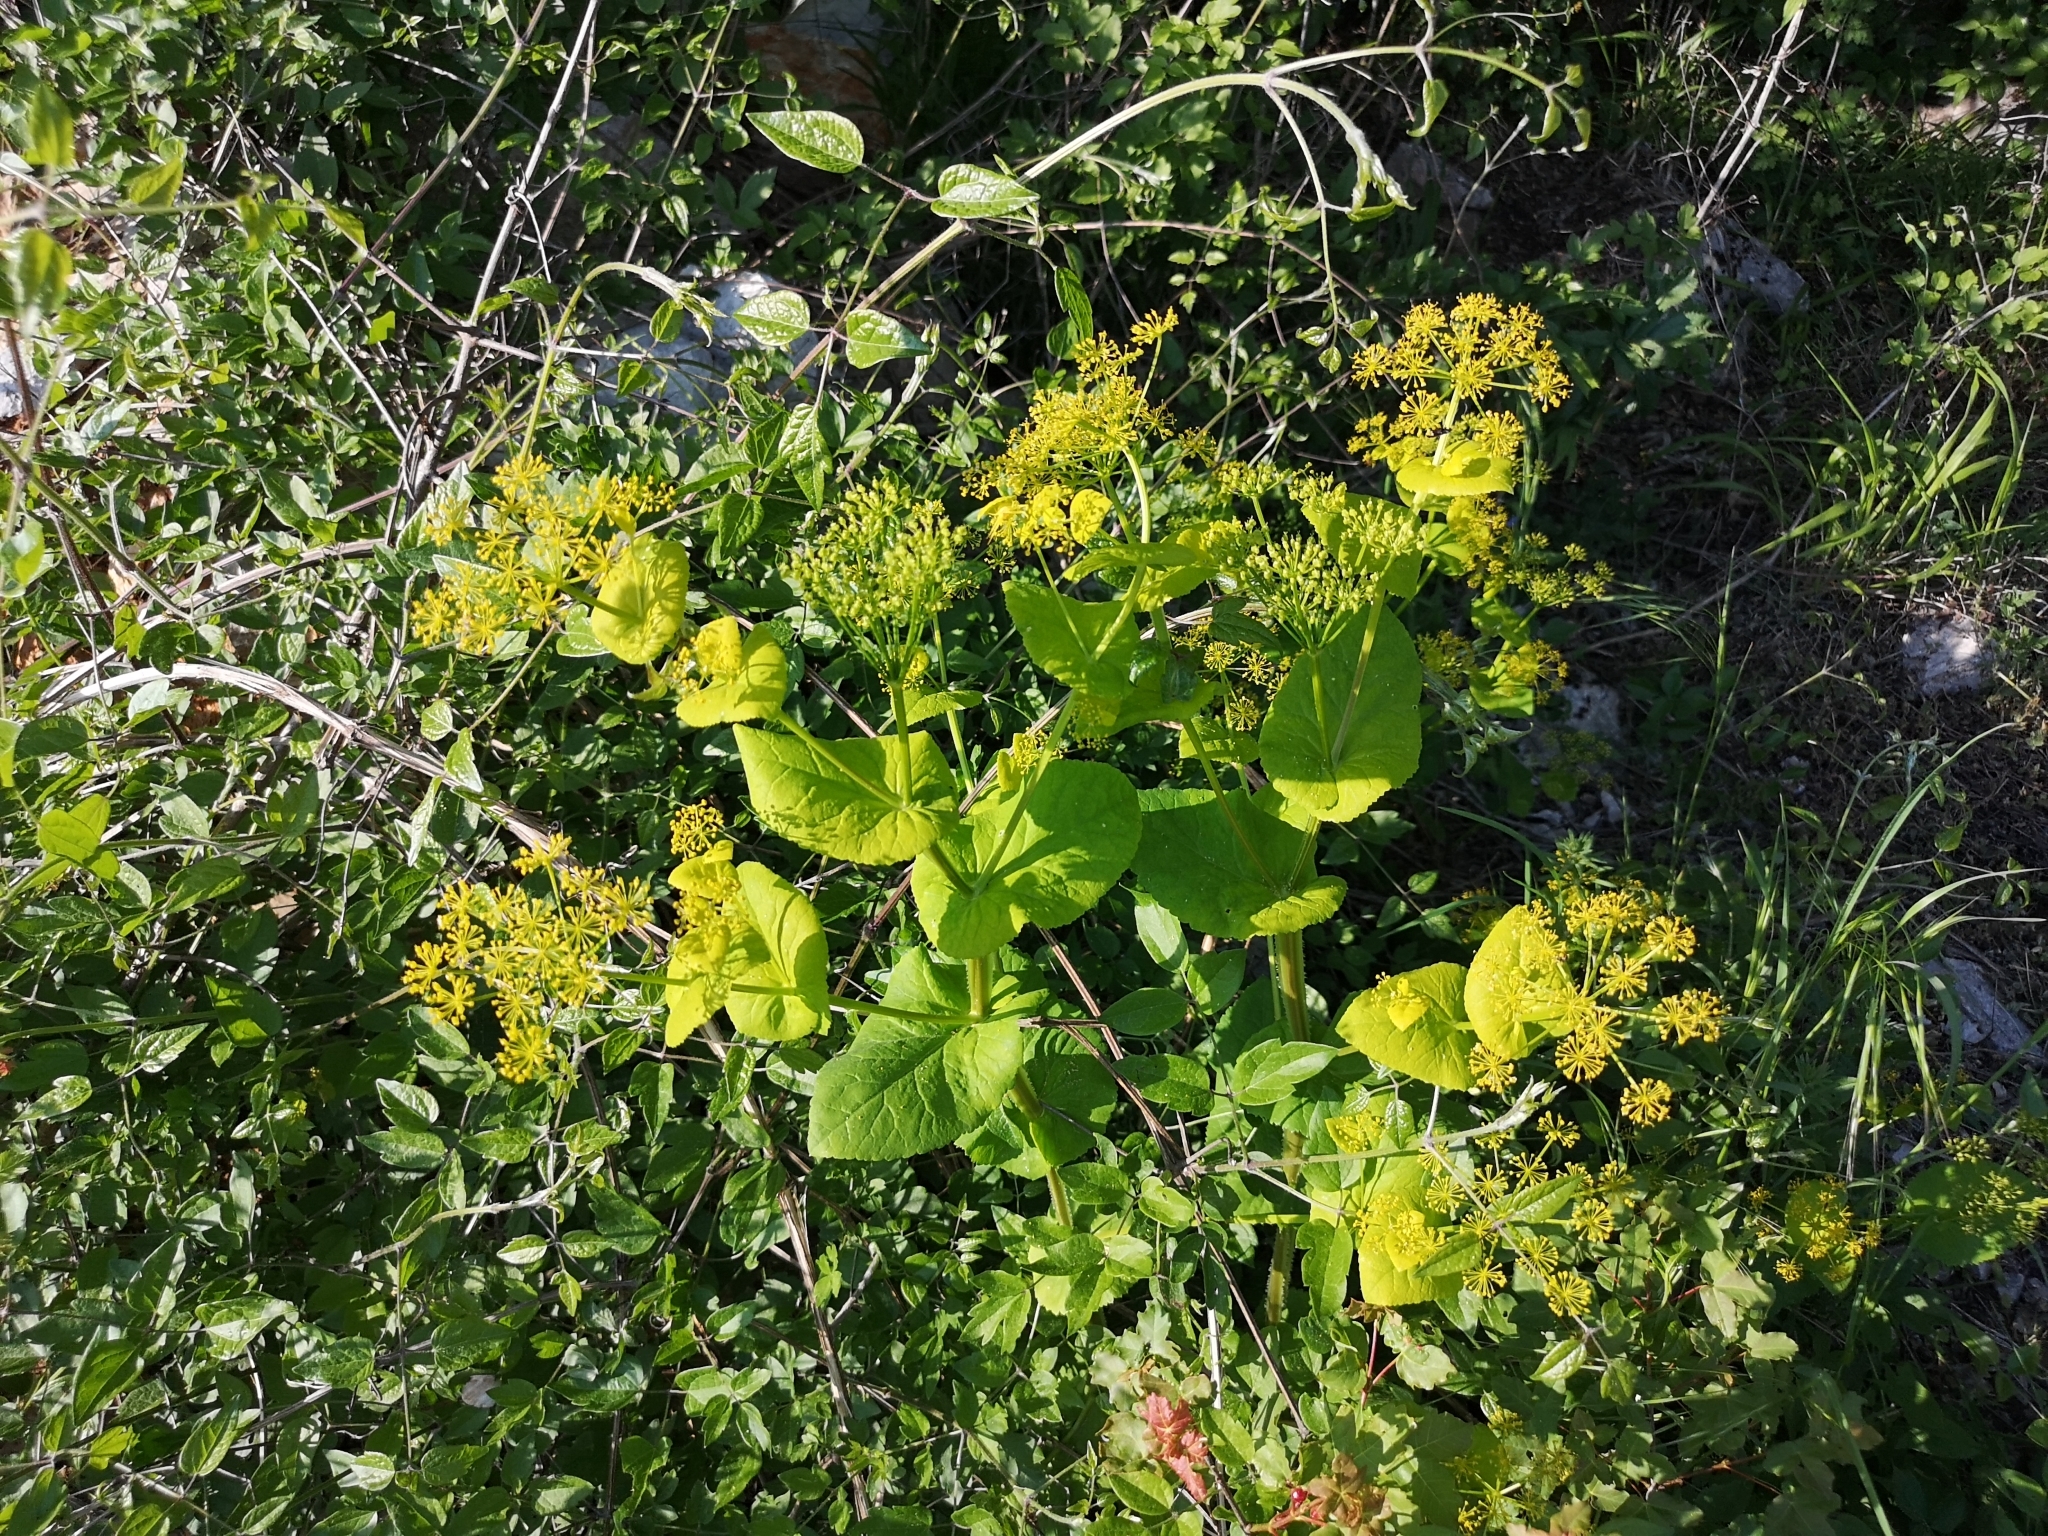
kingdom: Plantae
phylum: Tracheophyta
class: Magnoliopsida
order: Apiales
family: Apiaceae
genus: Smyrnium
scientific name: Smyrnium perfoliatum
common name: Perfoliate alexanders
